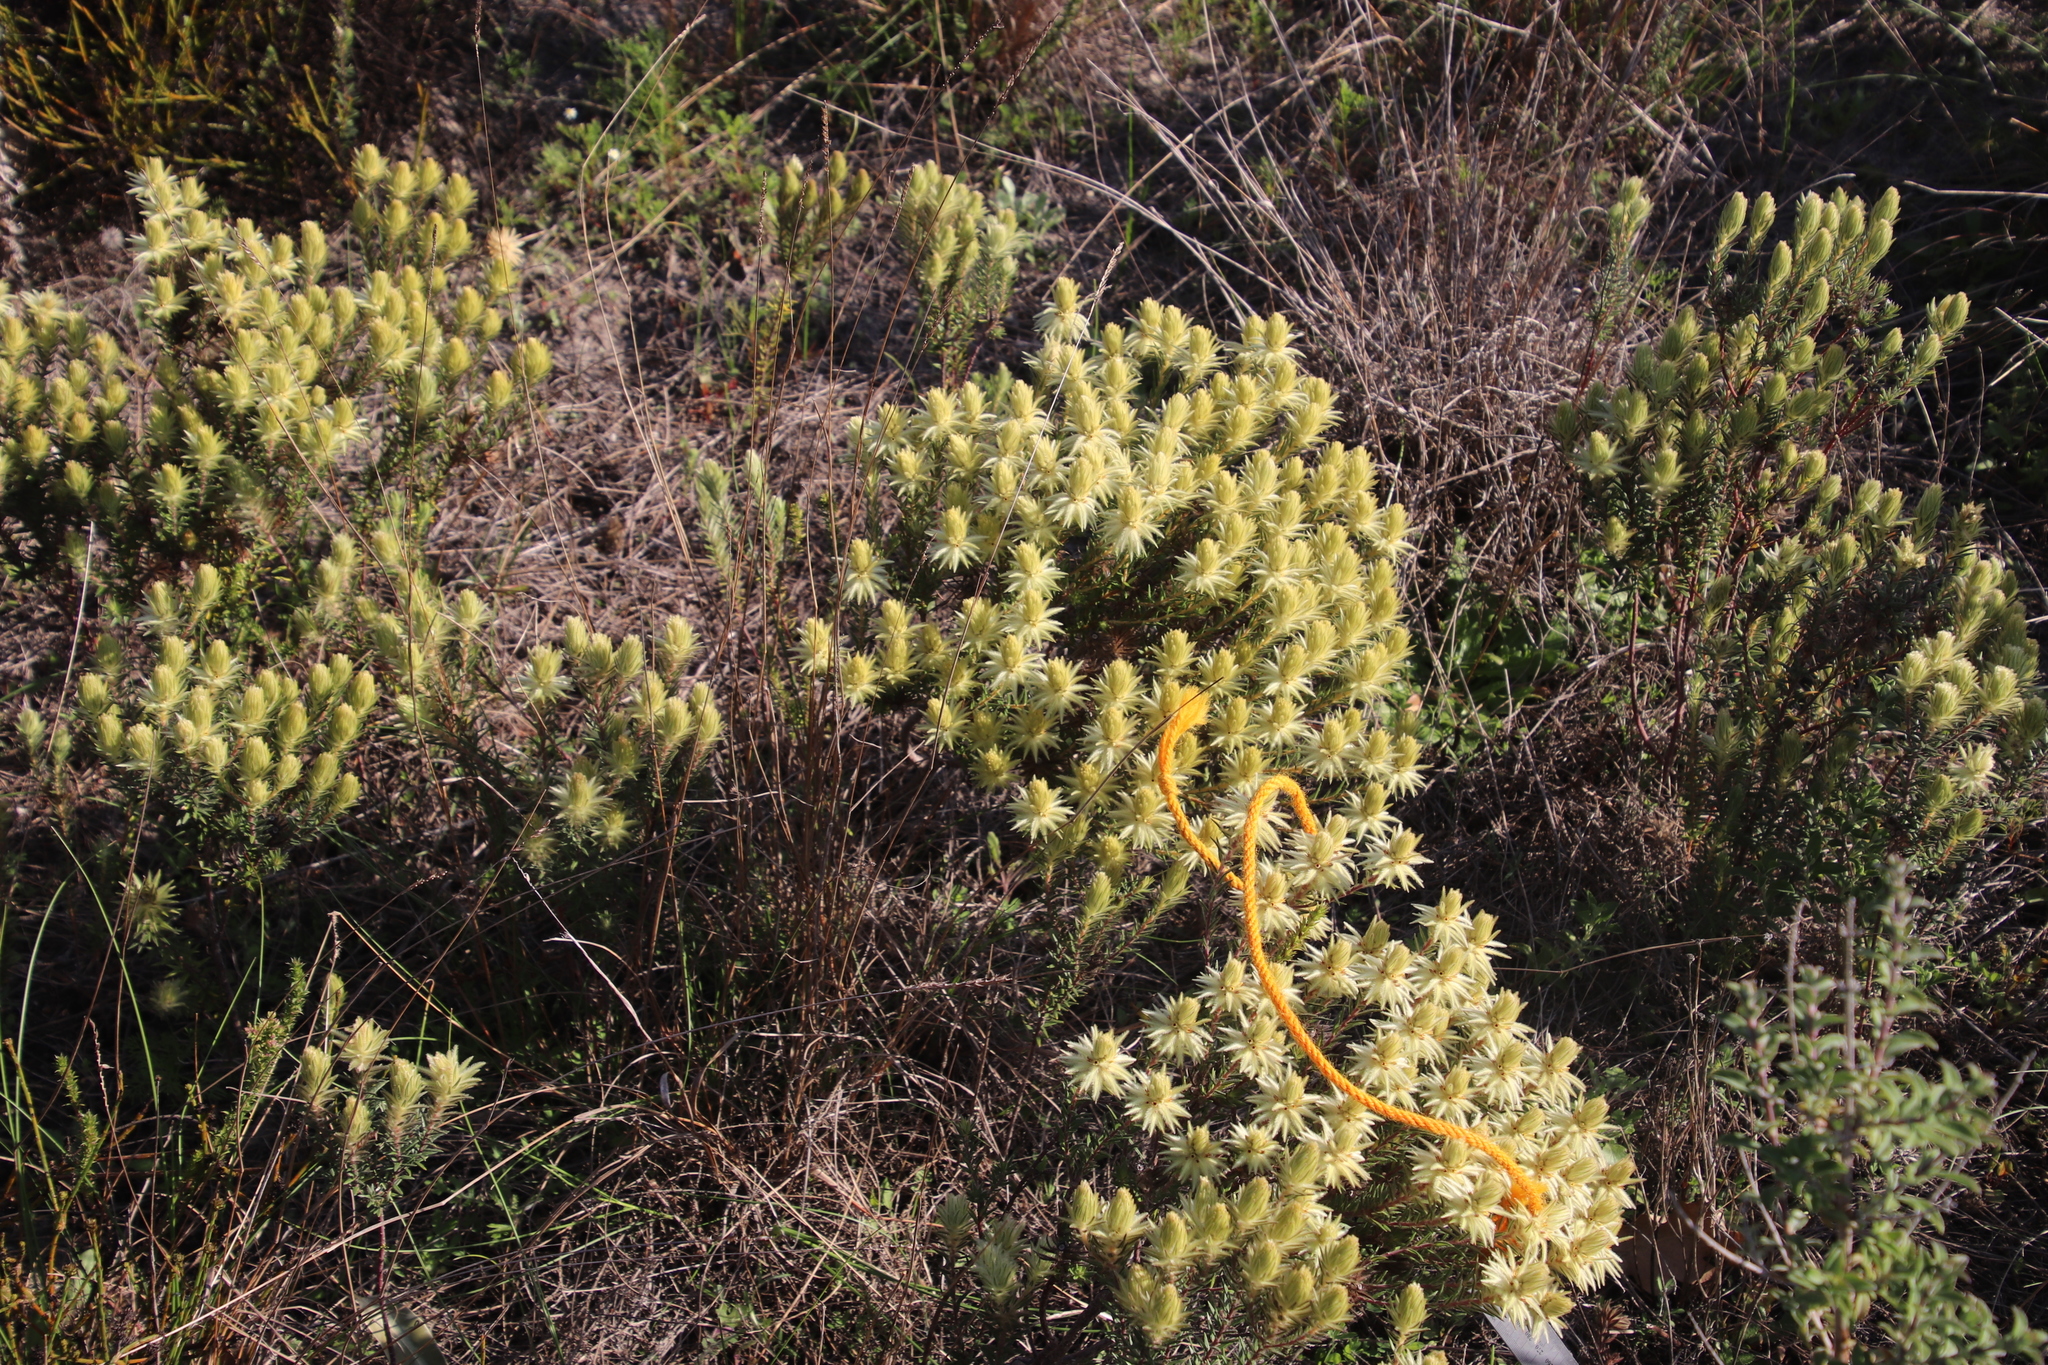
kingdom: Plantae
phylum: Tracheophyta
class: Magnoliopsida
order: Rosales
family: Rhamnaceae
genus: Phylica
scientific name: Phylica pubescens
